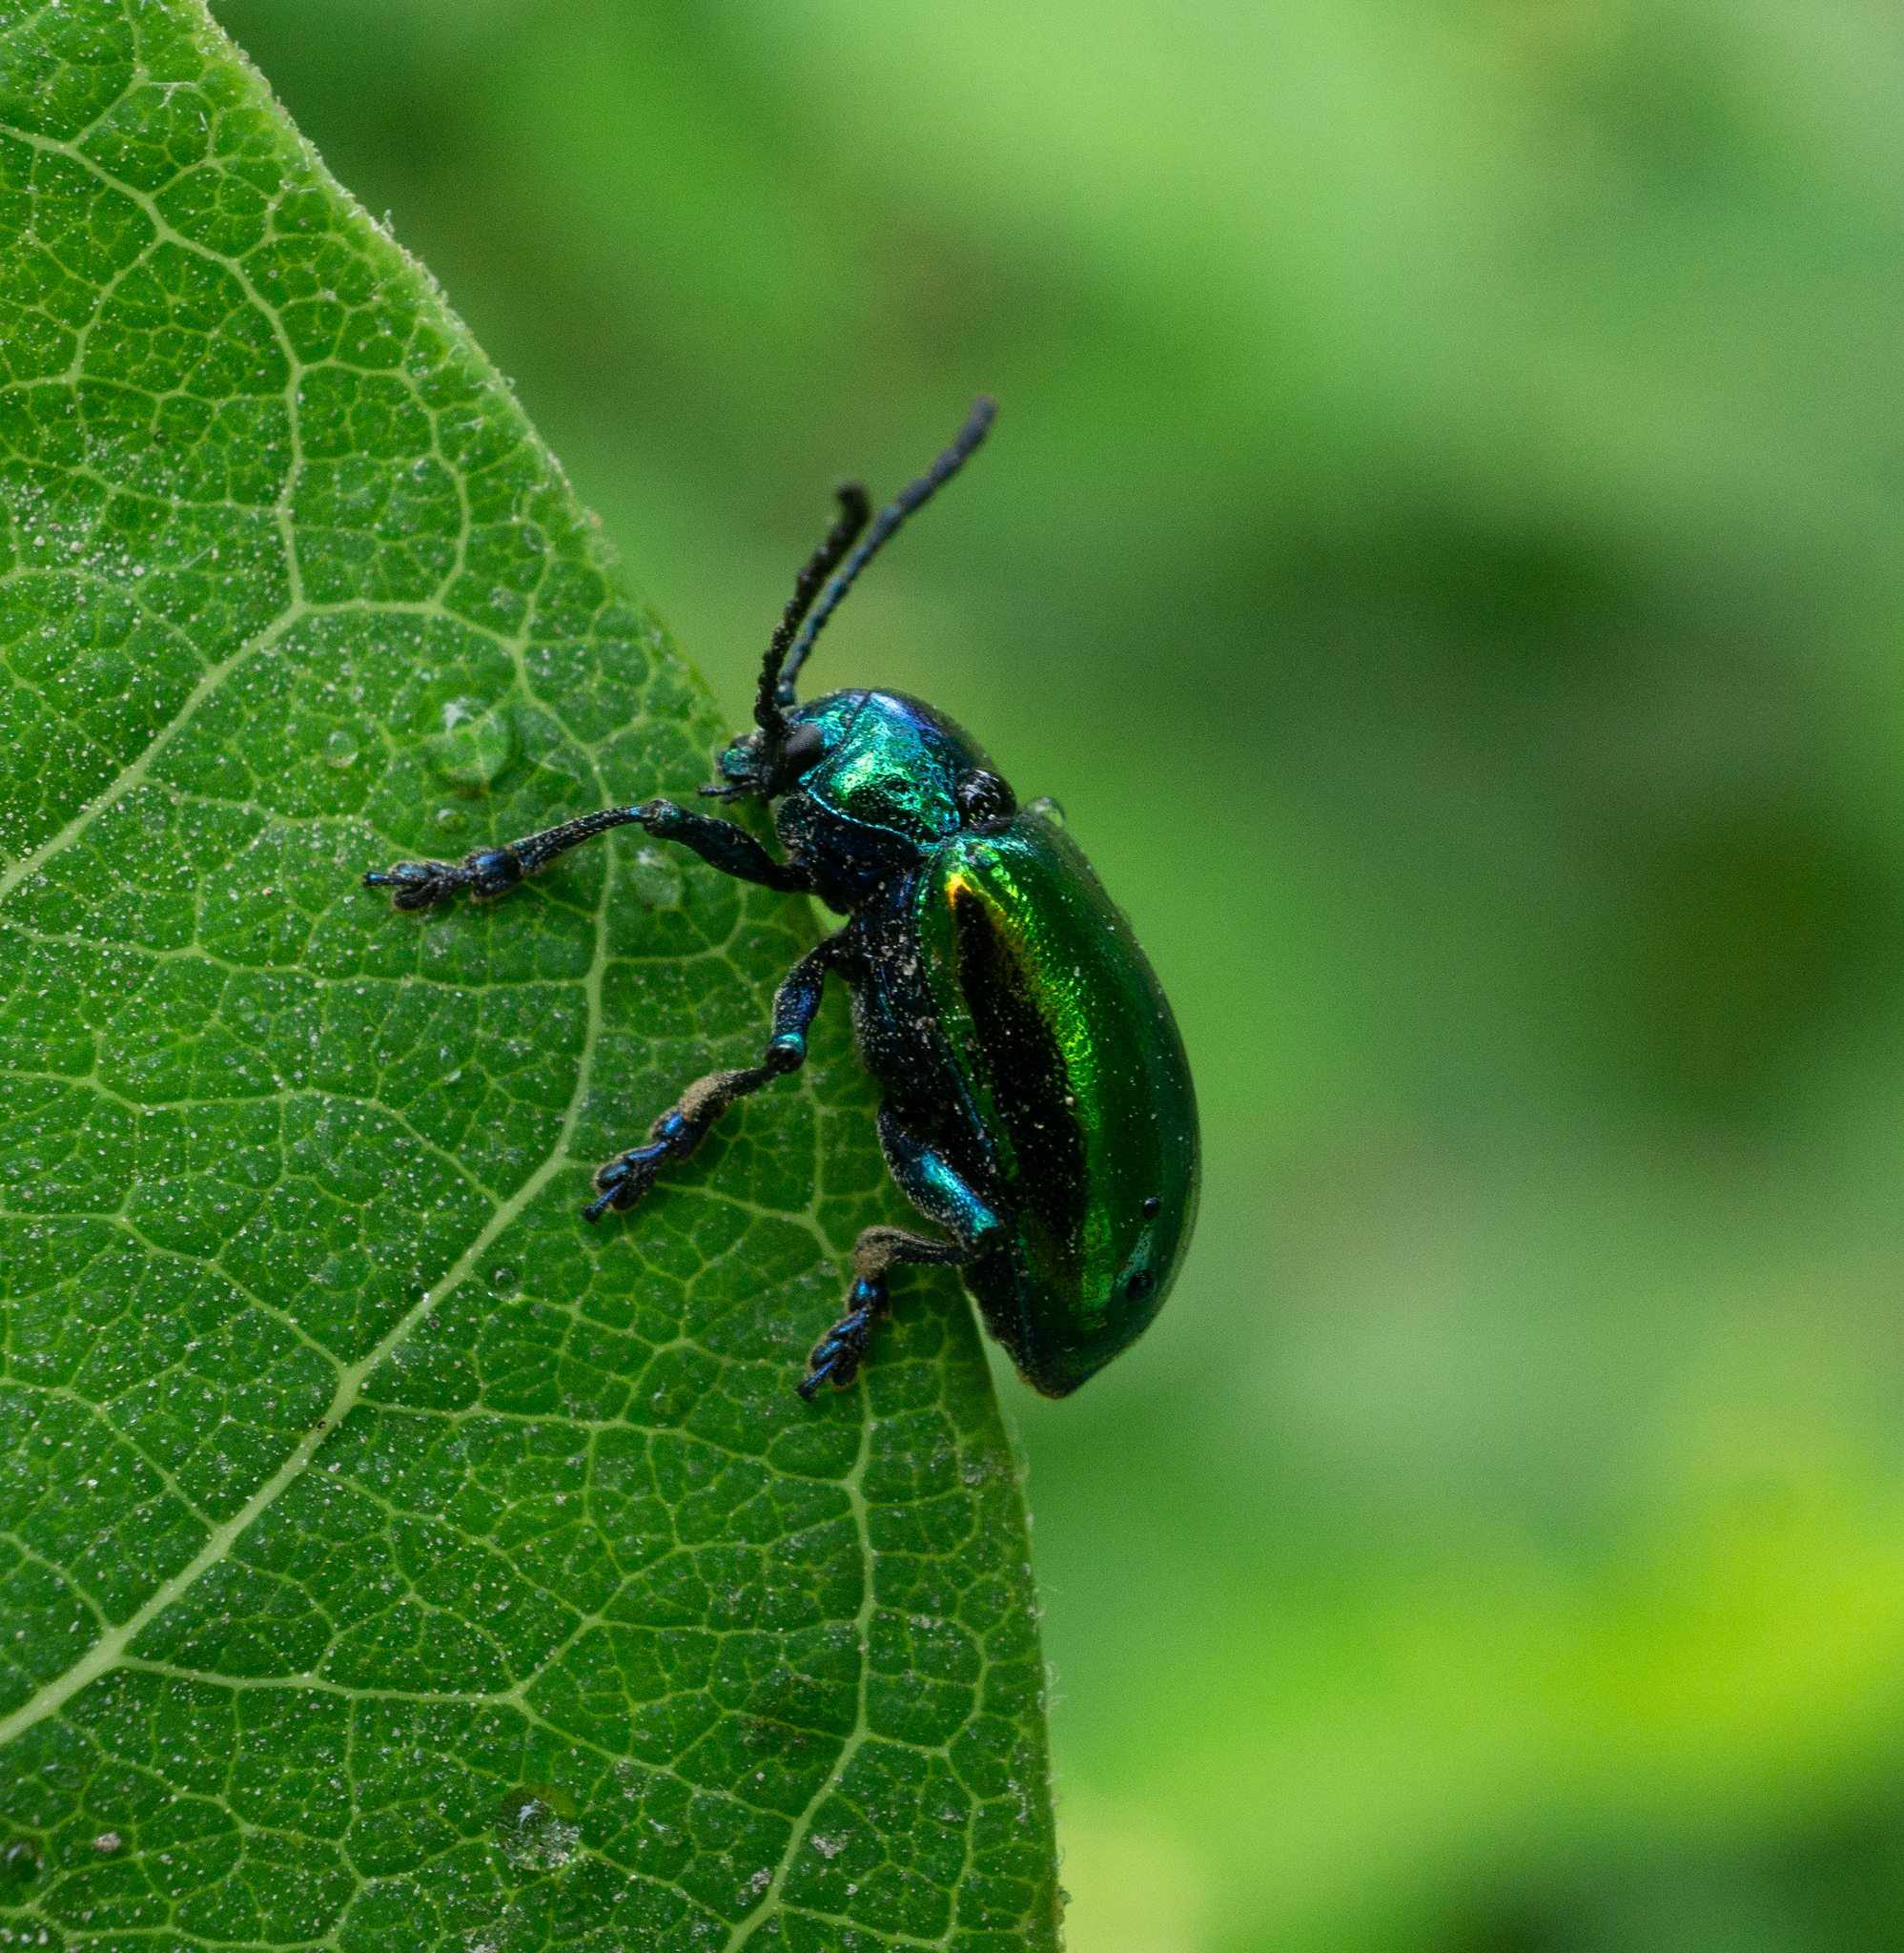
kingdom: Animalia
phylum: Arthropoda
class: Insecta
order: Coleoptera
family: Chrysomelidae
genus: Chrysochus
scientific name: Chrysochus auratus
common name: Dogbane leaf beetle
